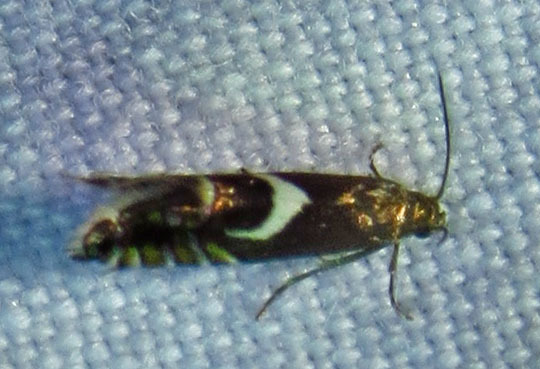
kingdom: Animalia
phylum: Arthropoda
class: Insecta
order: Lepidoptera
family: Glyphipterigidae
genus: Glyphipterix
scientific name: Glyphipterix Diploschizia impigritella
